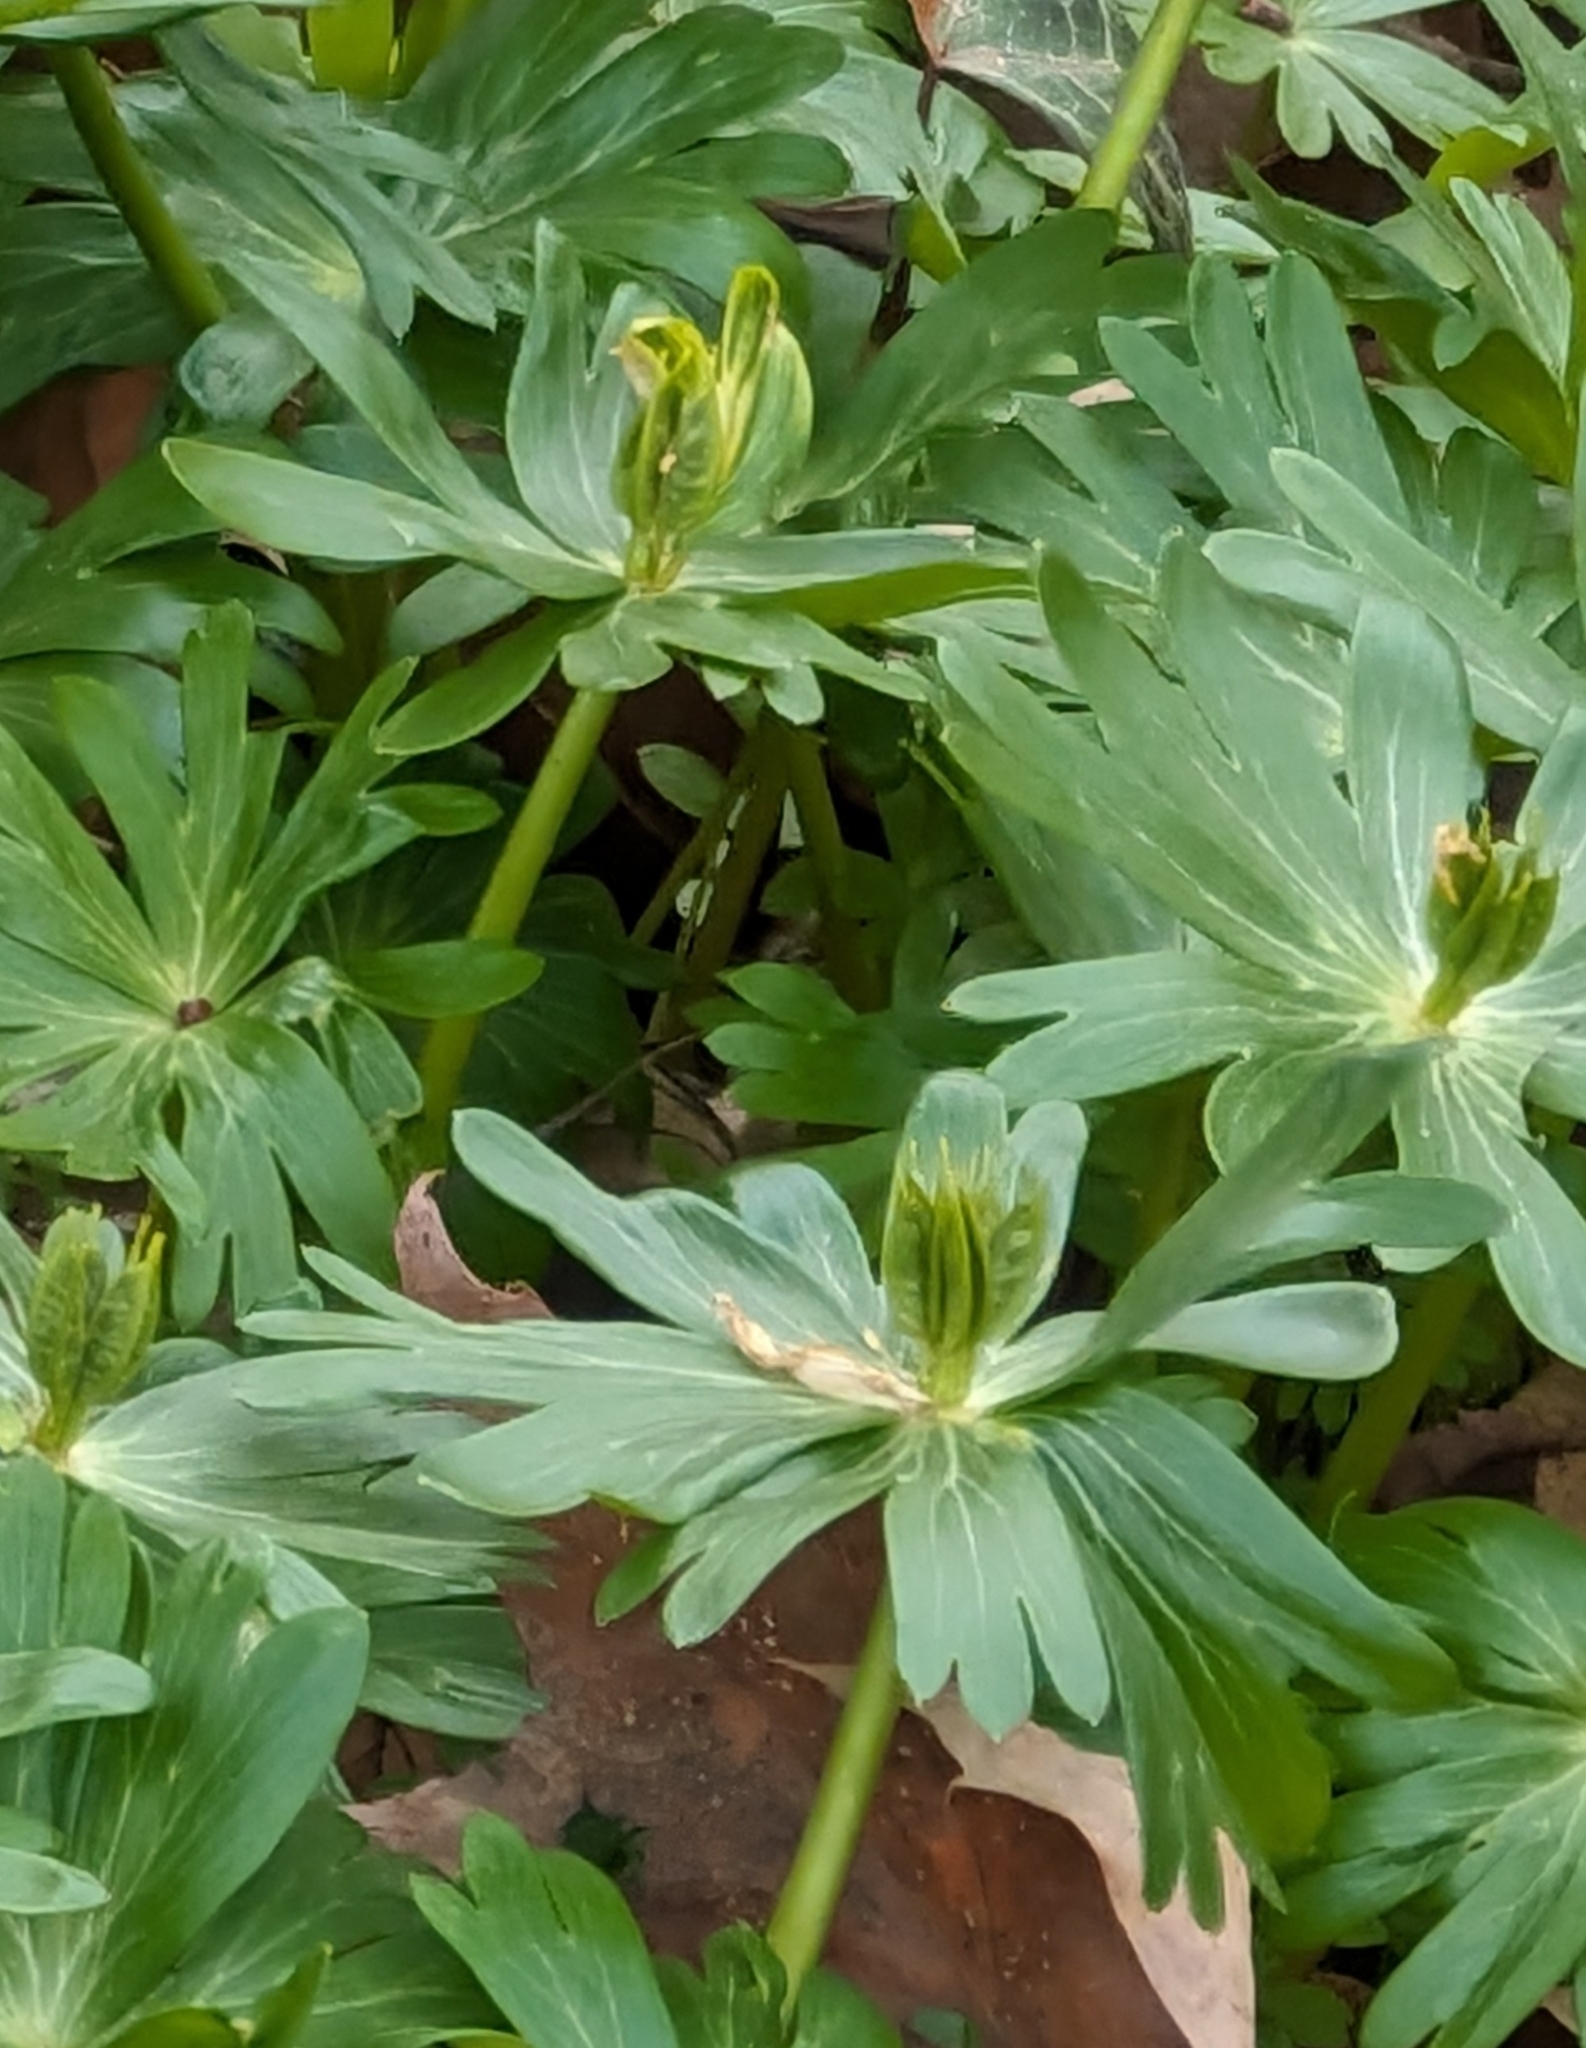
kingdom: Plantae
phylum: Tracheophyta
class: Magnoliopsida
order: Ranunculales
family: Ranunculaceae
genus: Eranthis
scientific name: Eranthis hyemalis
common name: Winter aconite
